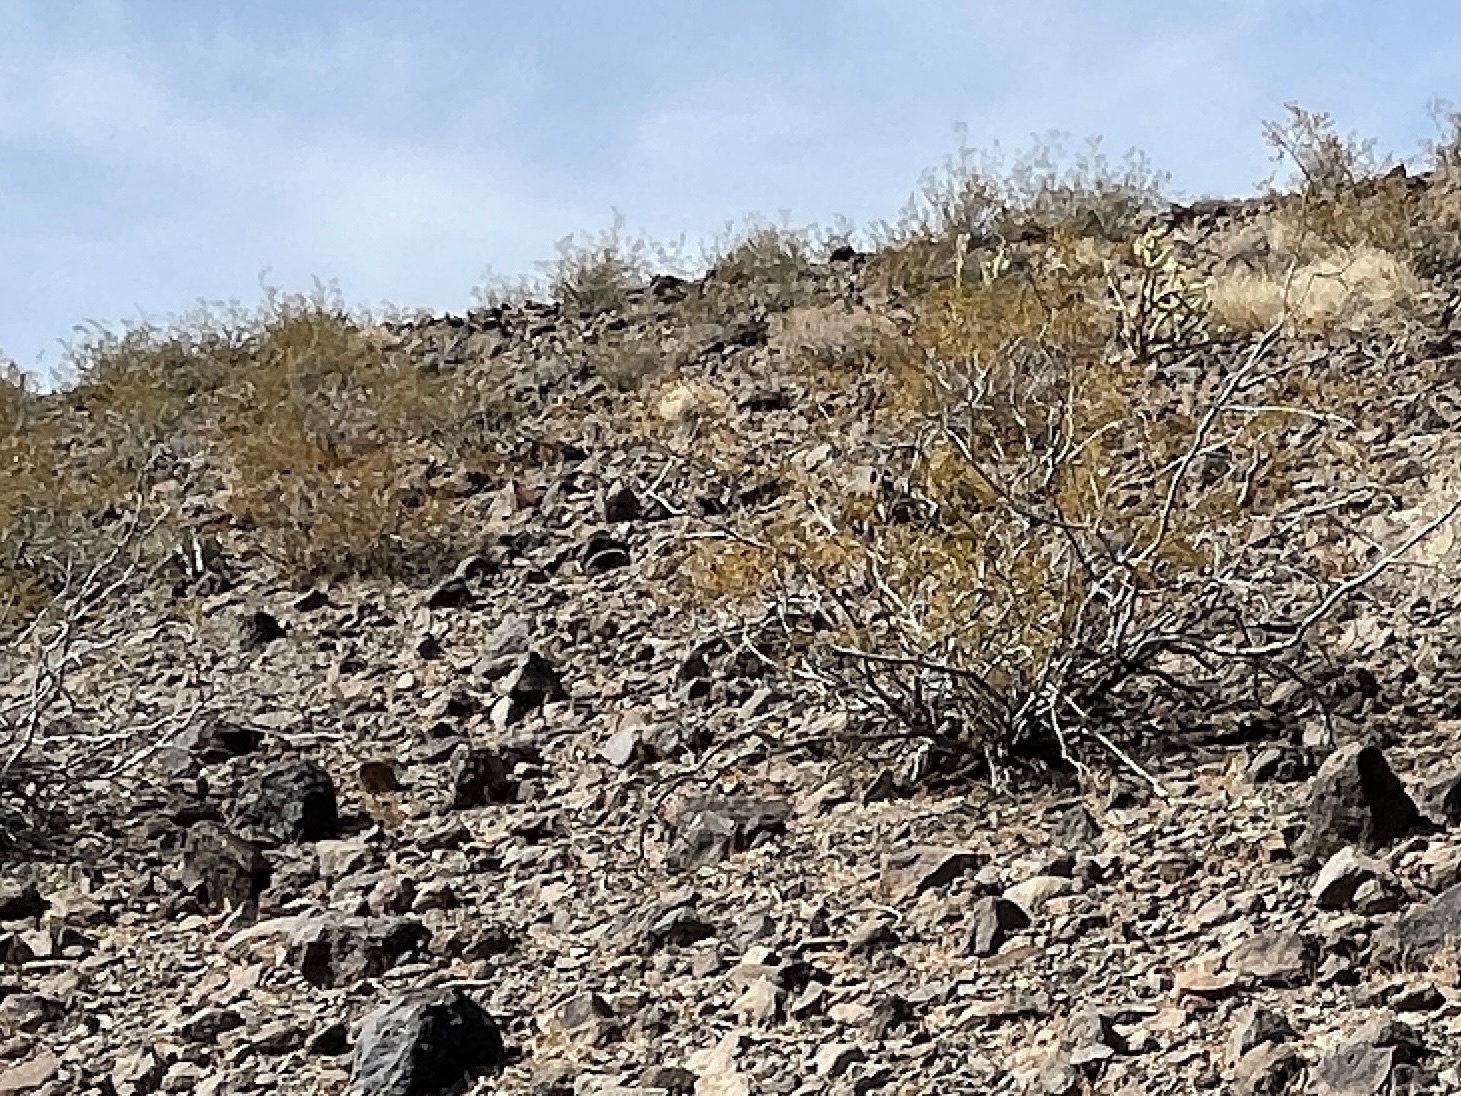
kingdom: Plantae
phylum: Tracheophyta
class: Magnoliopsida
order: Zygophyllales
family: Zygophyllaceae
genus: Larrea
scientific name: Larrea tridentata
